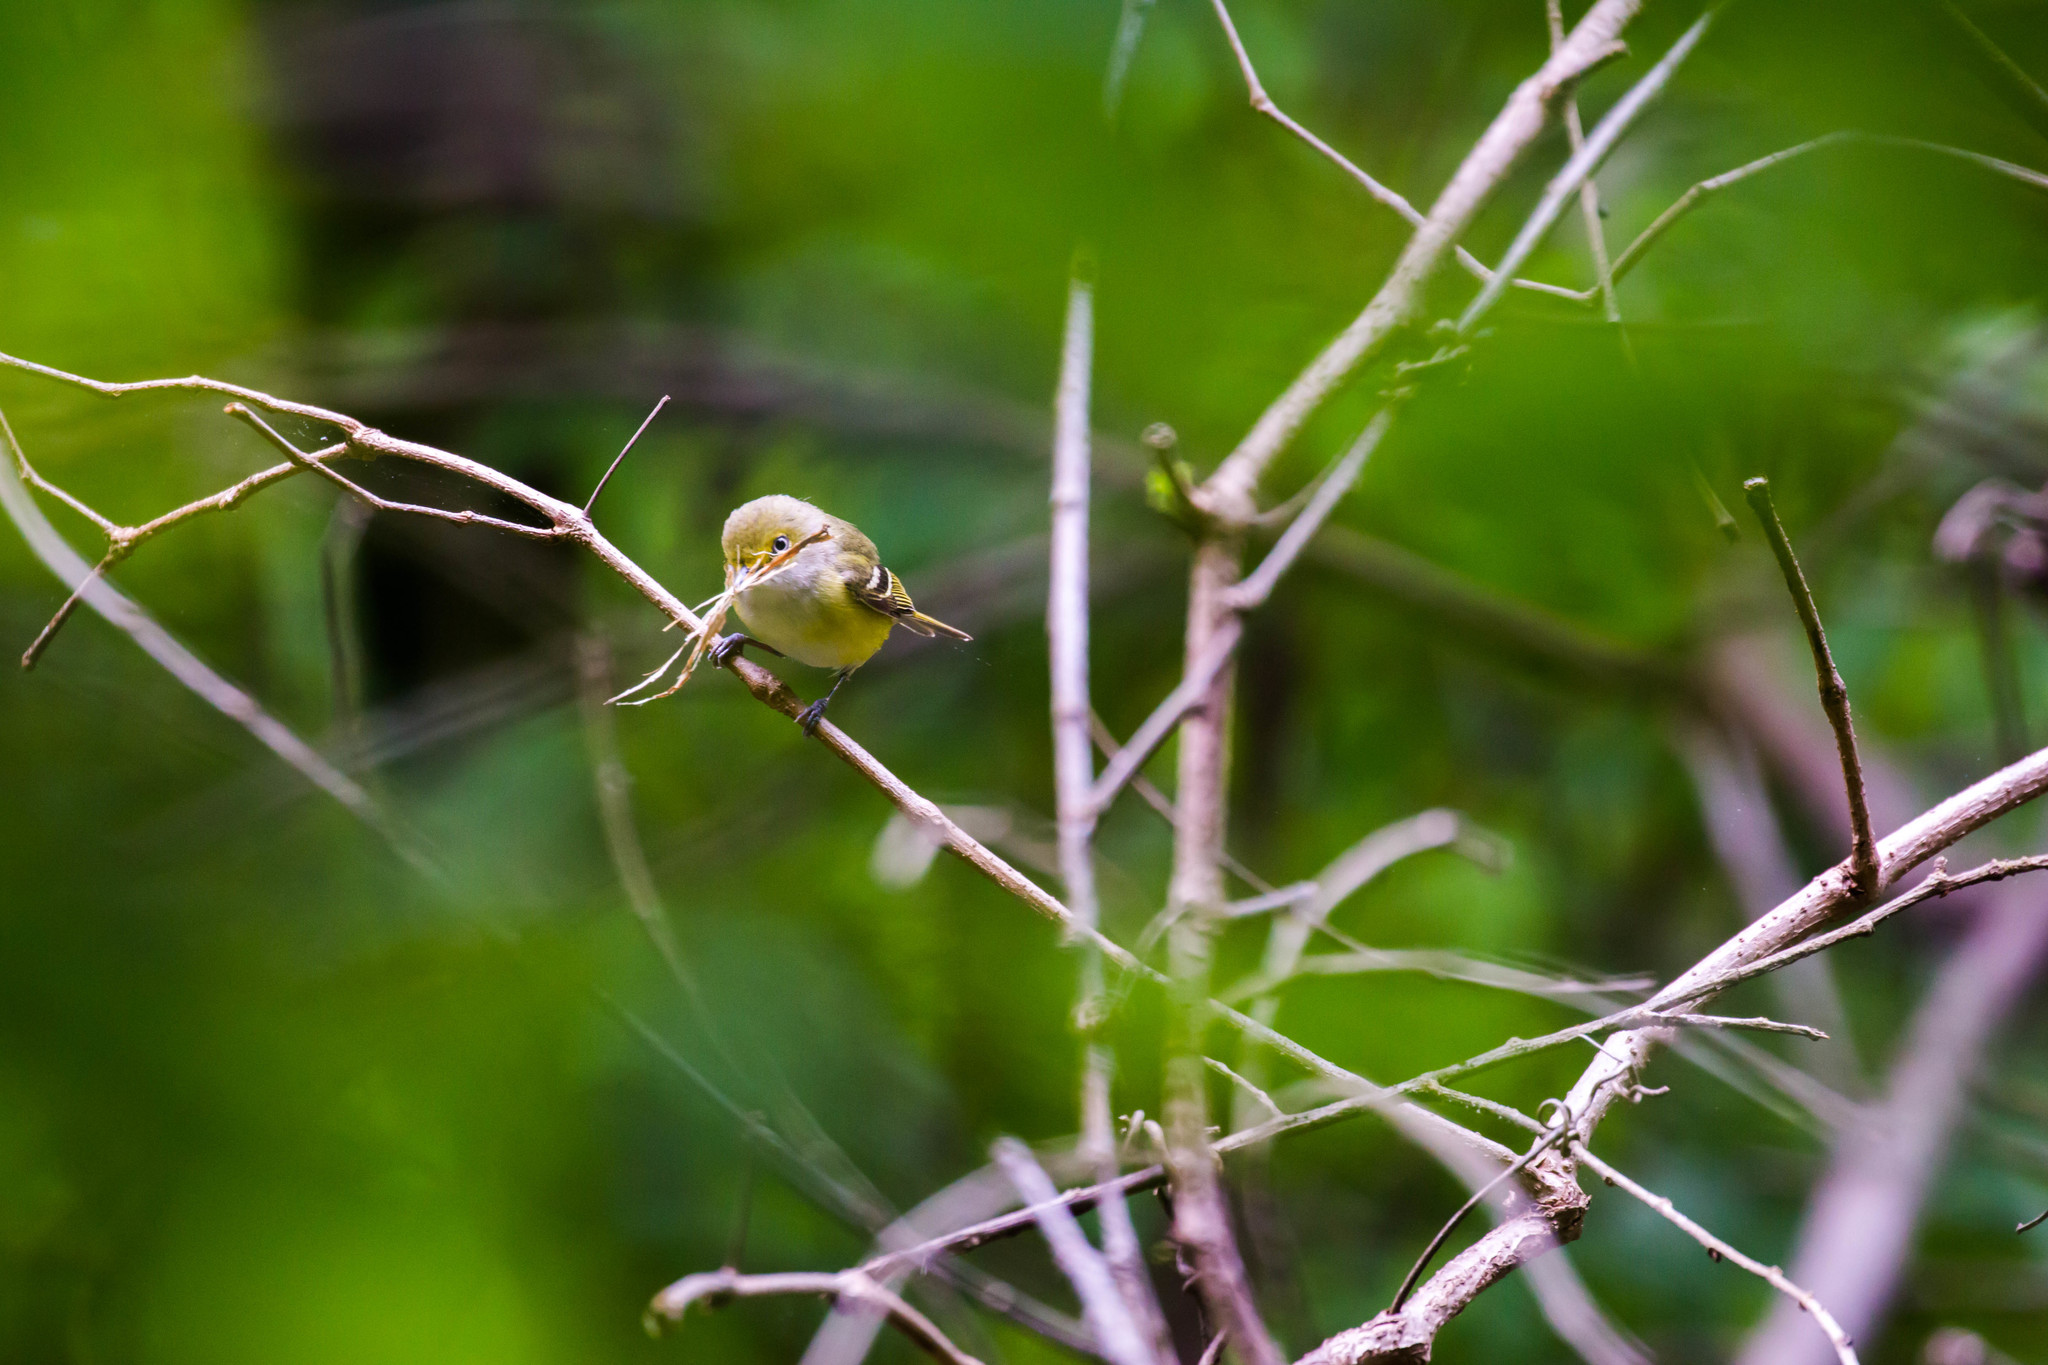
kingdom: Animalia
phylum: Chordata
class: Aves
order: Passeriformes
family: Vireonidae
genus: Vireo
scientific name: Vireo griseus
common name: White-eyed vireo
